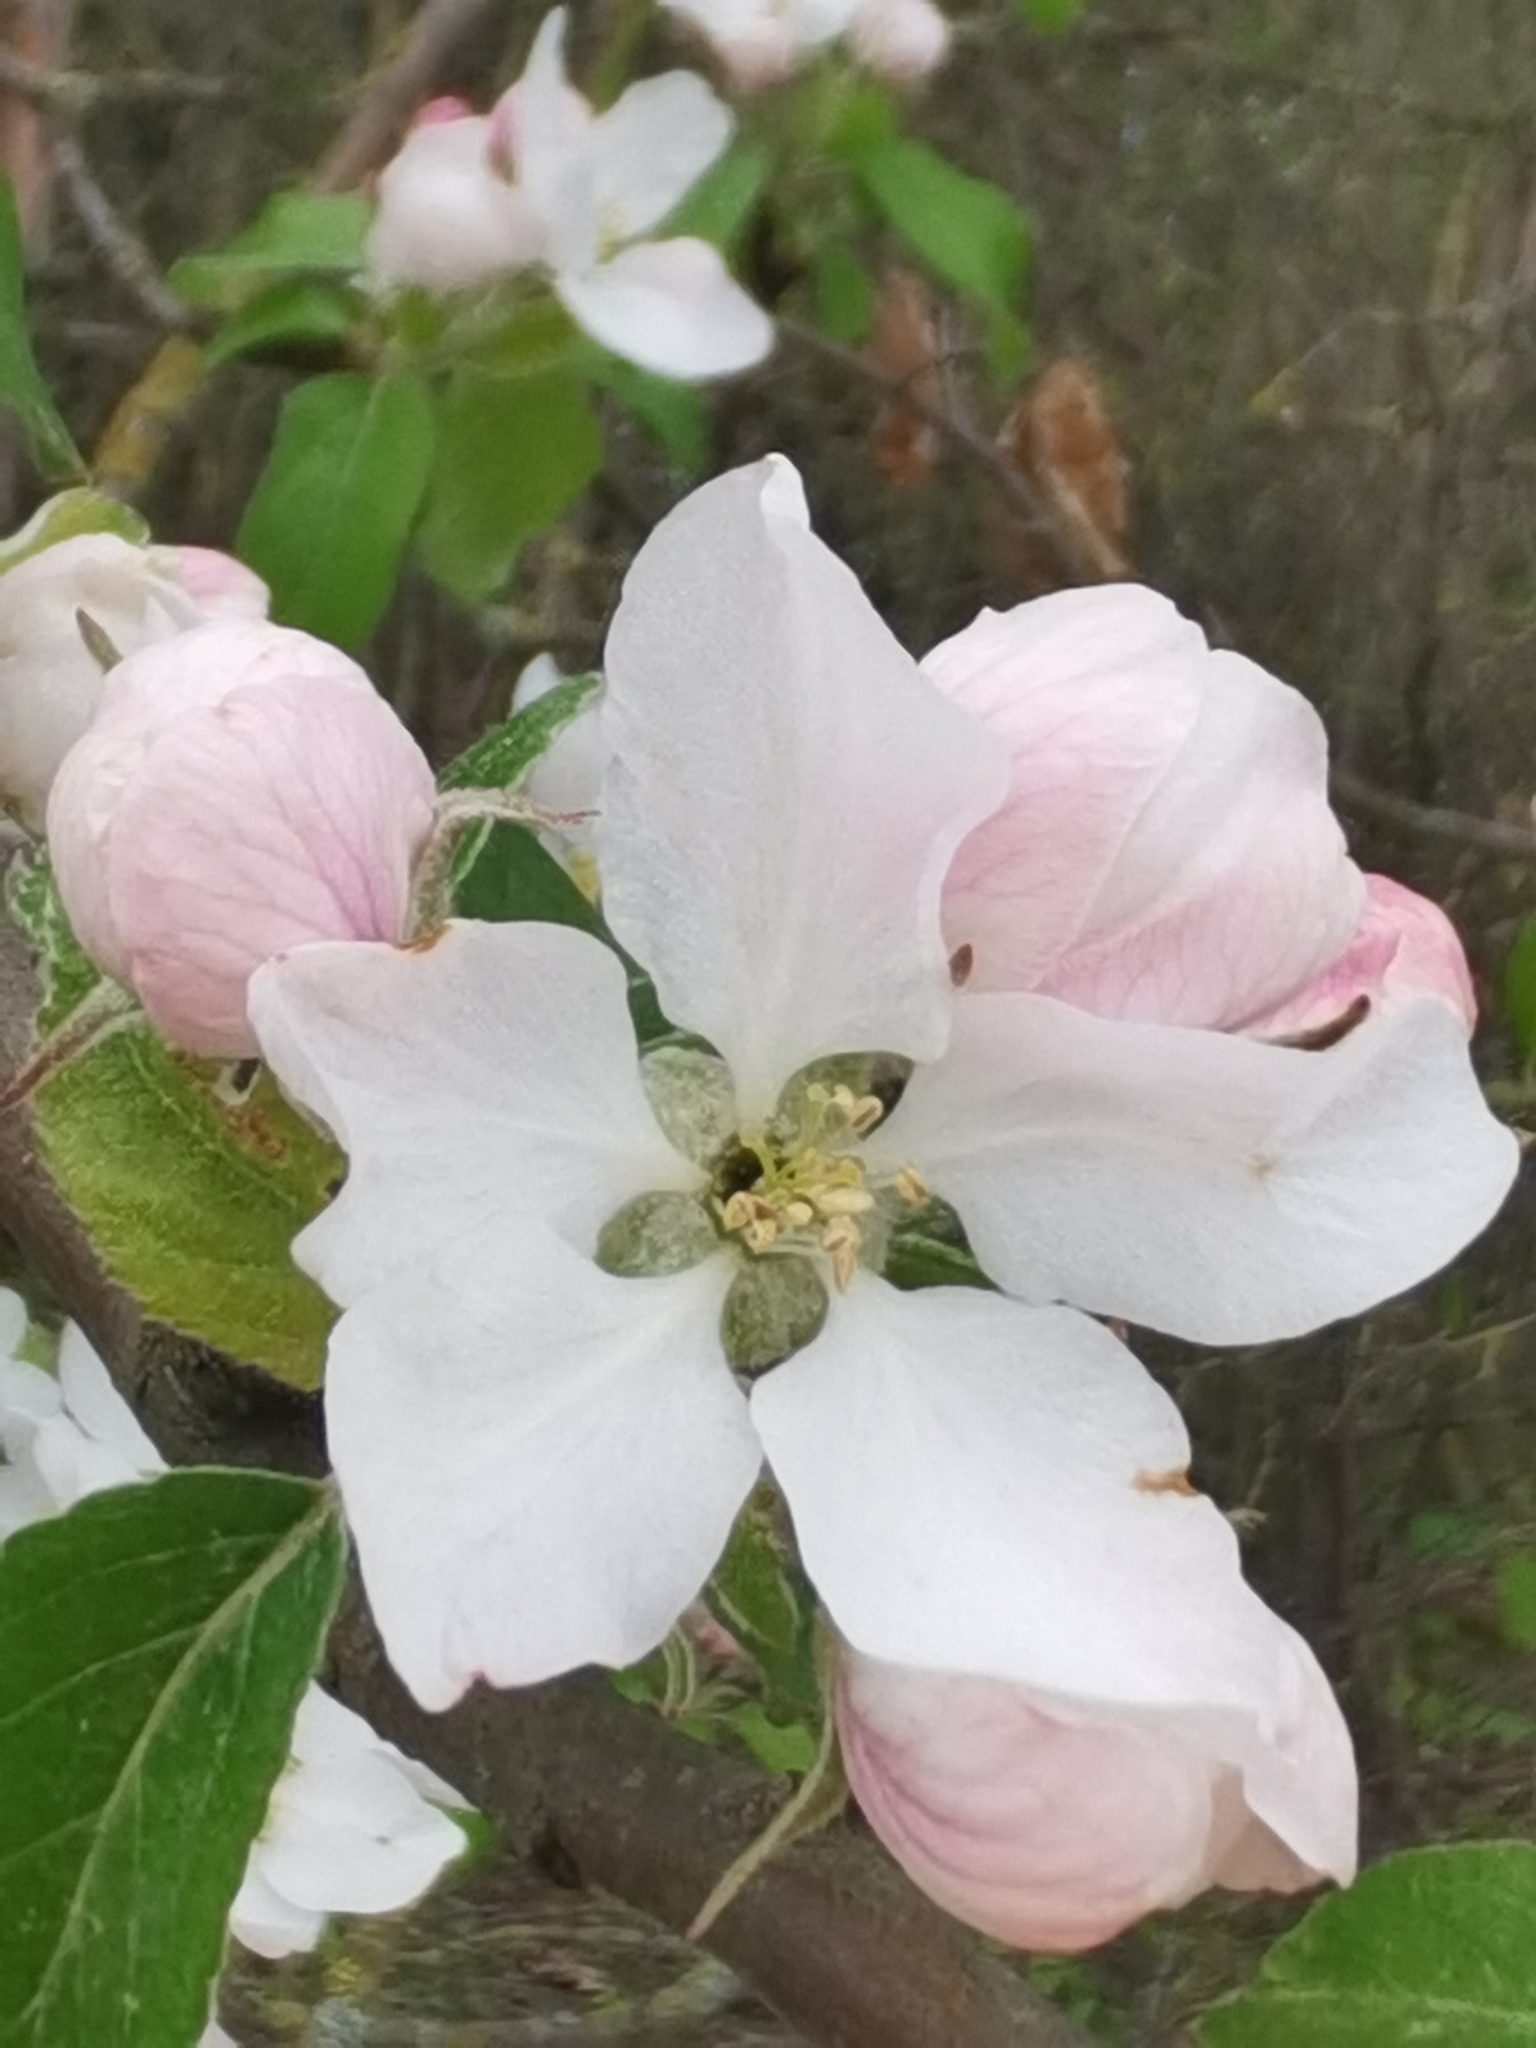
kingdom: Plantae
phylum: Tracheophyta
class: Magnoliopsida
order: Rosales
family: Rosaceae
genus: Malus
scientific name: Malus domestica
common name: Apple
